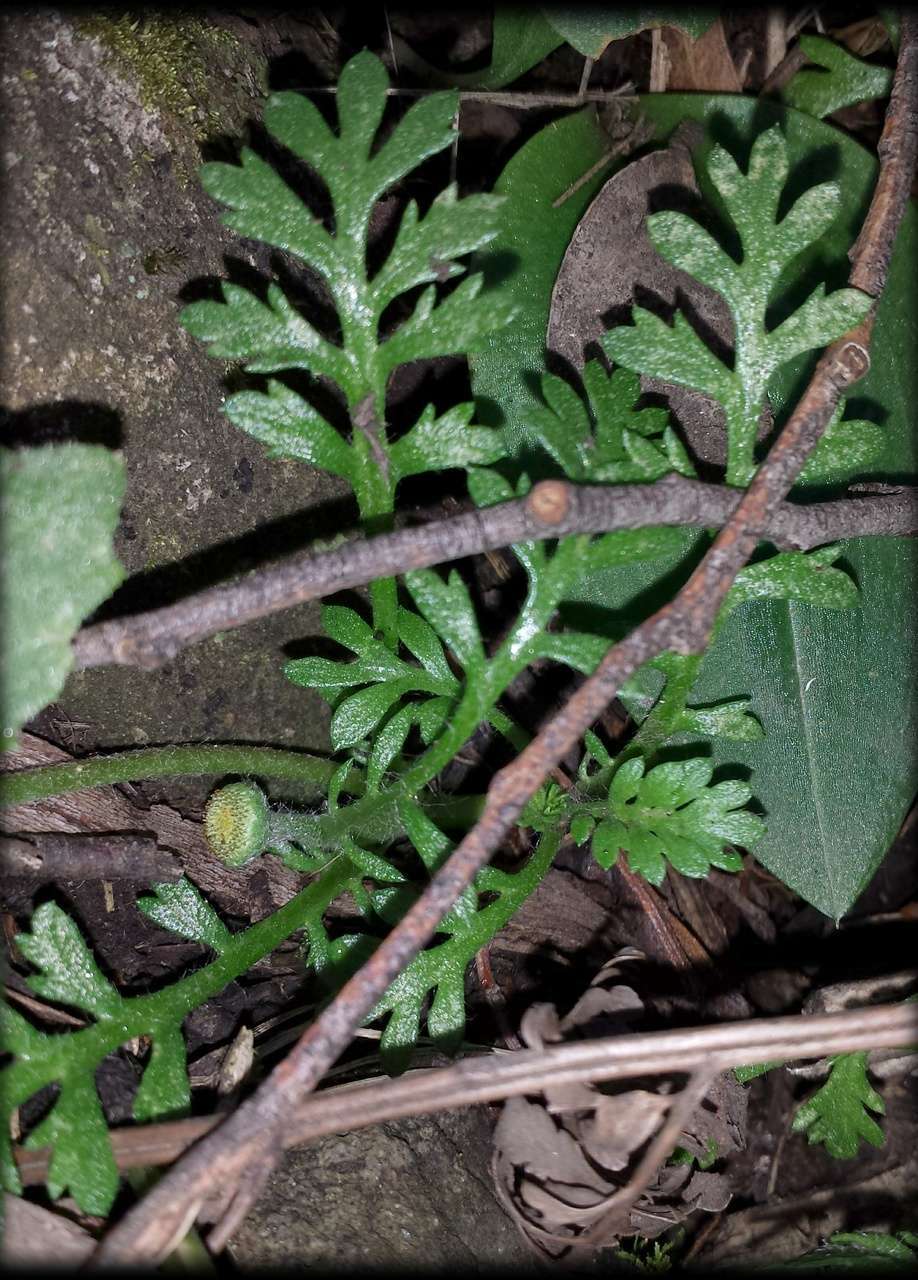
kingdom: Plantae
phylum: Tracheophyta
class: Magnoliopsida
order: Asterales
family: Asteraceae
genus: Leptinella
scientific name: Leptinella filicula
